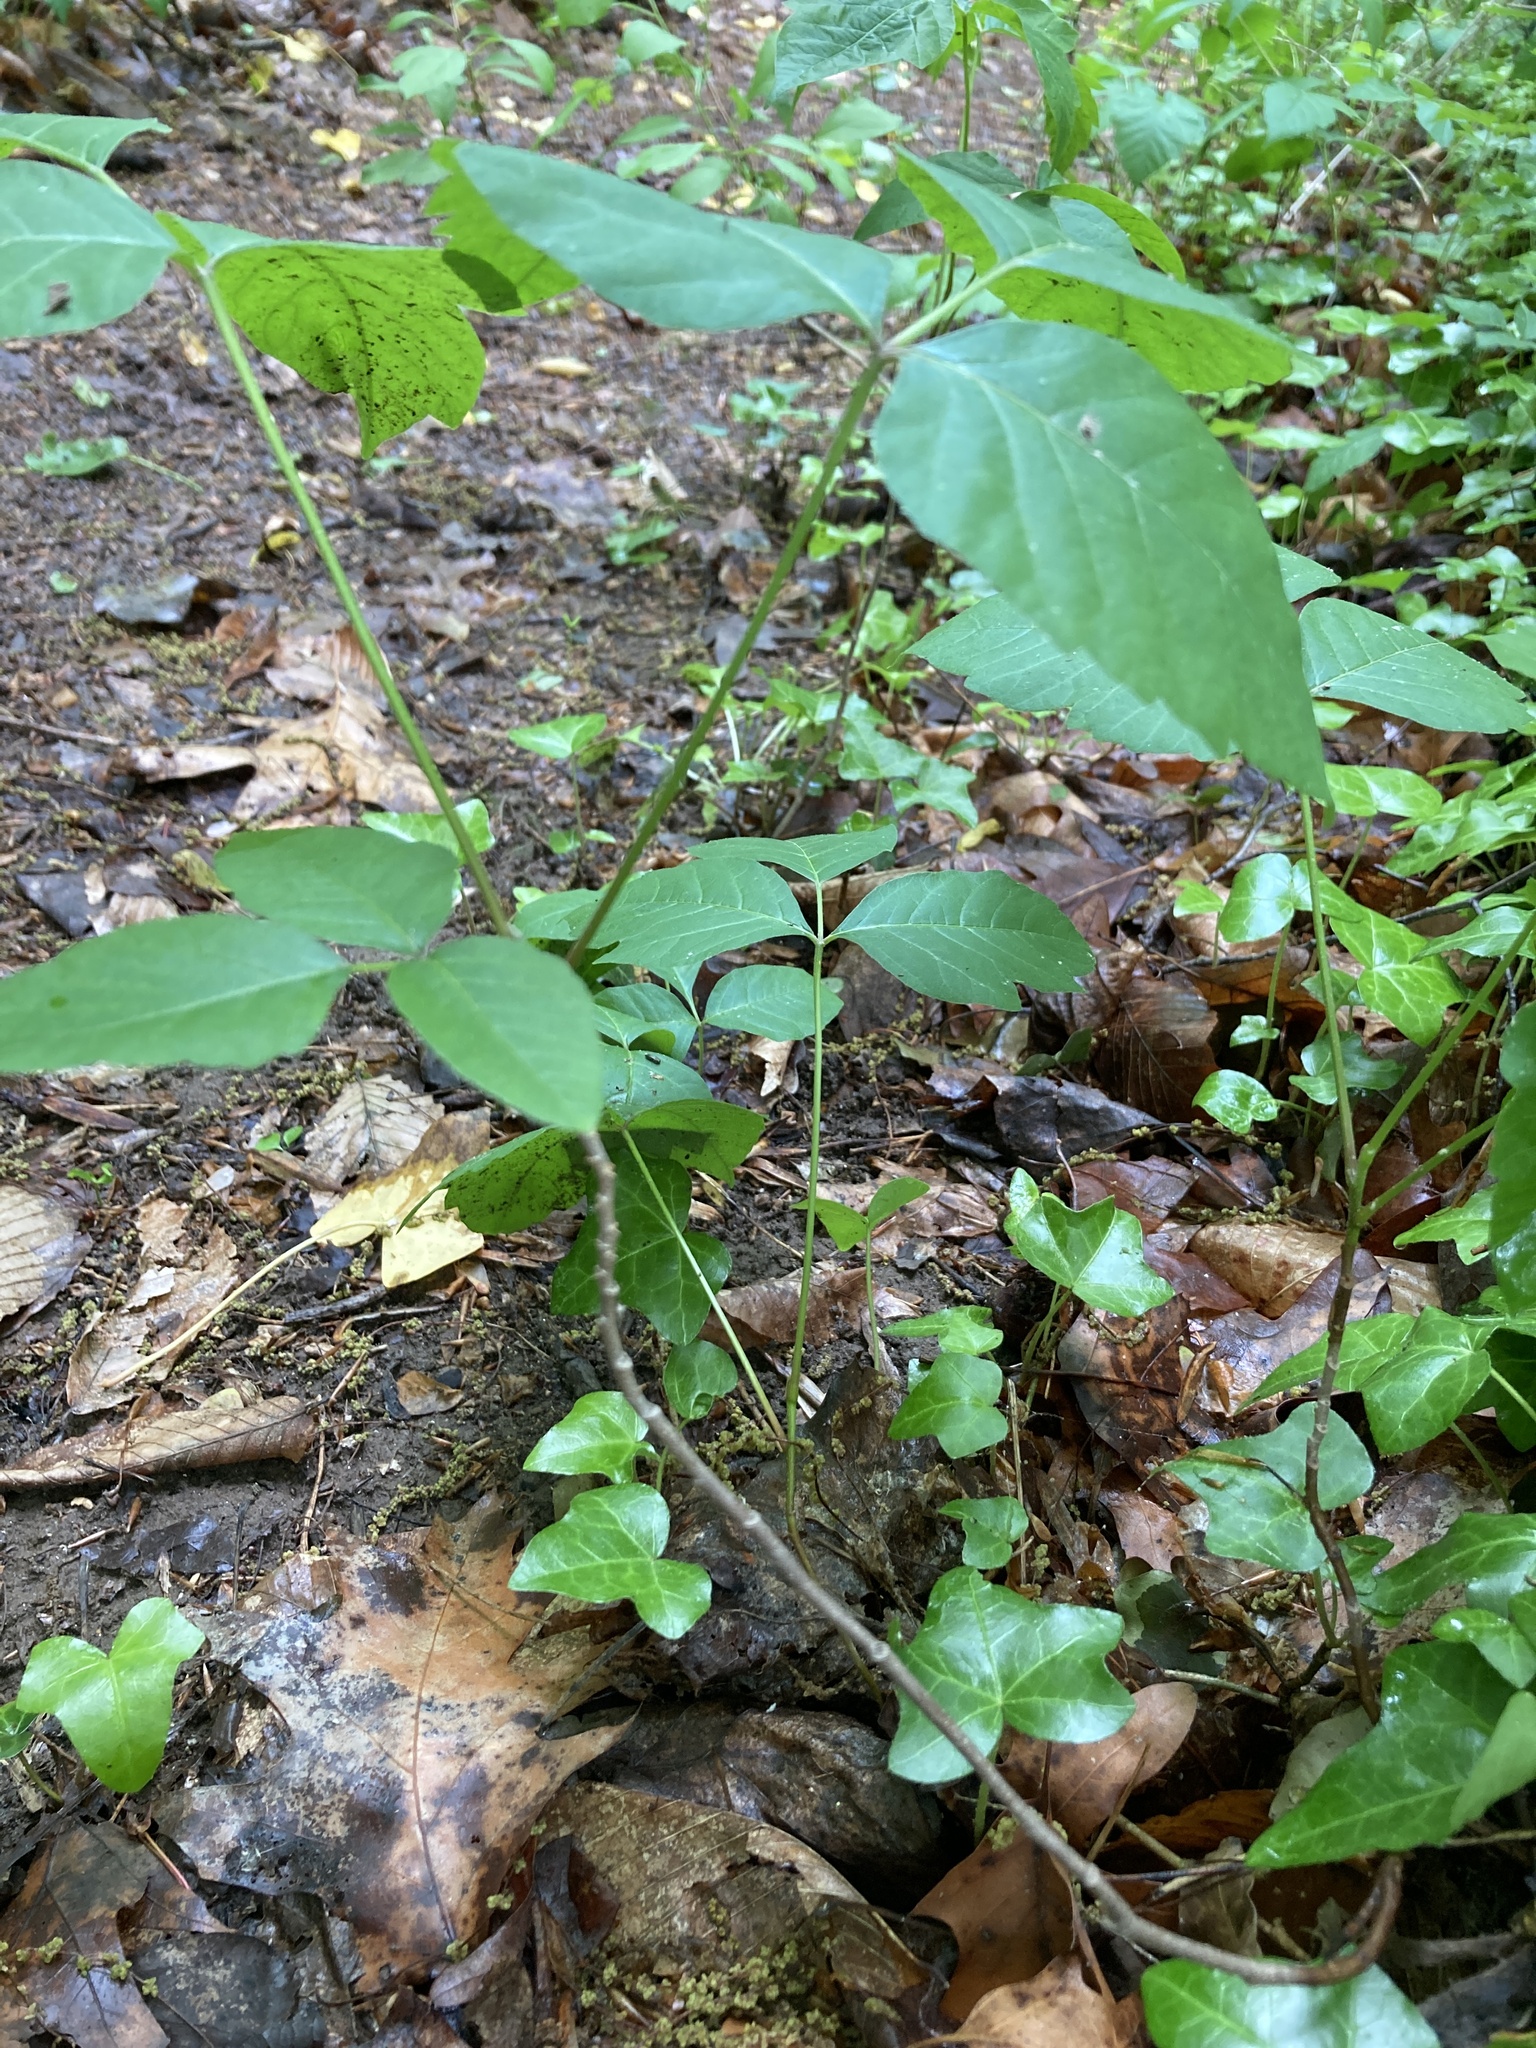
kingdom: Plantae
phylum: Tracheophyta
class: Magnoliopsida
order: Sapindales
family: Anacardiaceae
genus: Toxicodendron
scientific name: Toxicodendron radicans
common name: Poison ivy
